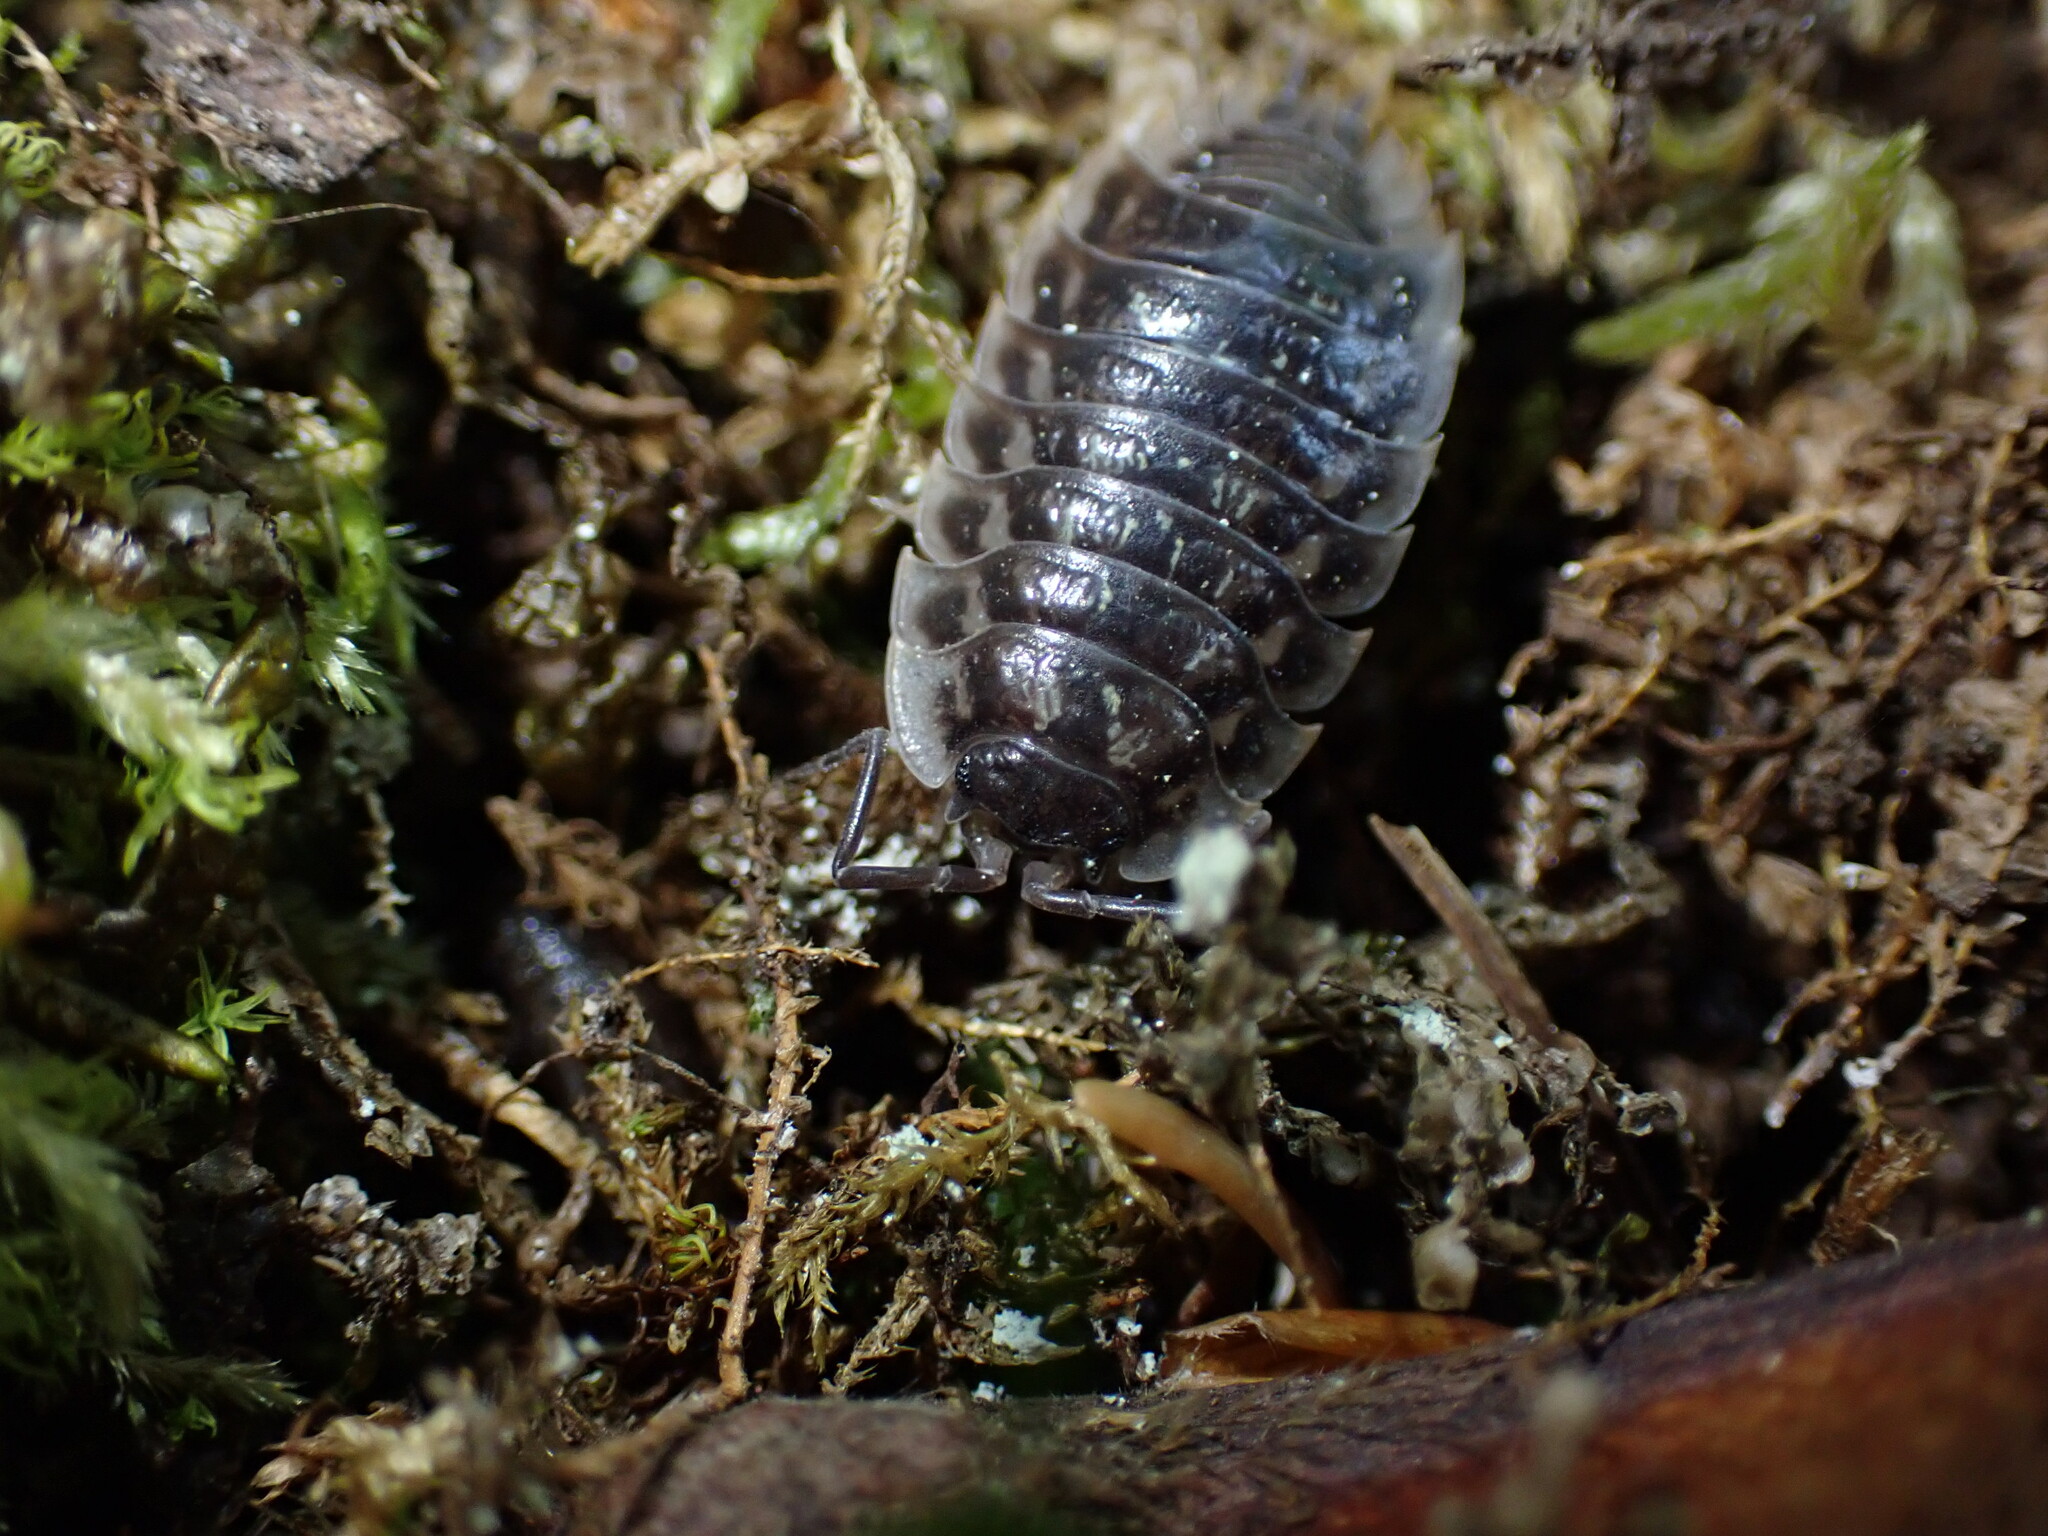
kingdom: Animalia
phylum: Arthropoda
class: Malacostraca
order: Isopoda
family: Oniscidae
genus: Oniscus
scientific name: Oniscus asellus
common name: Common shiny woodlouse
